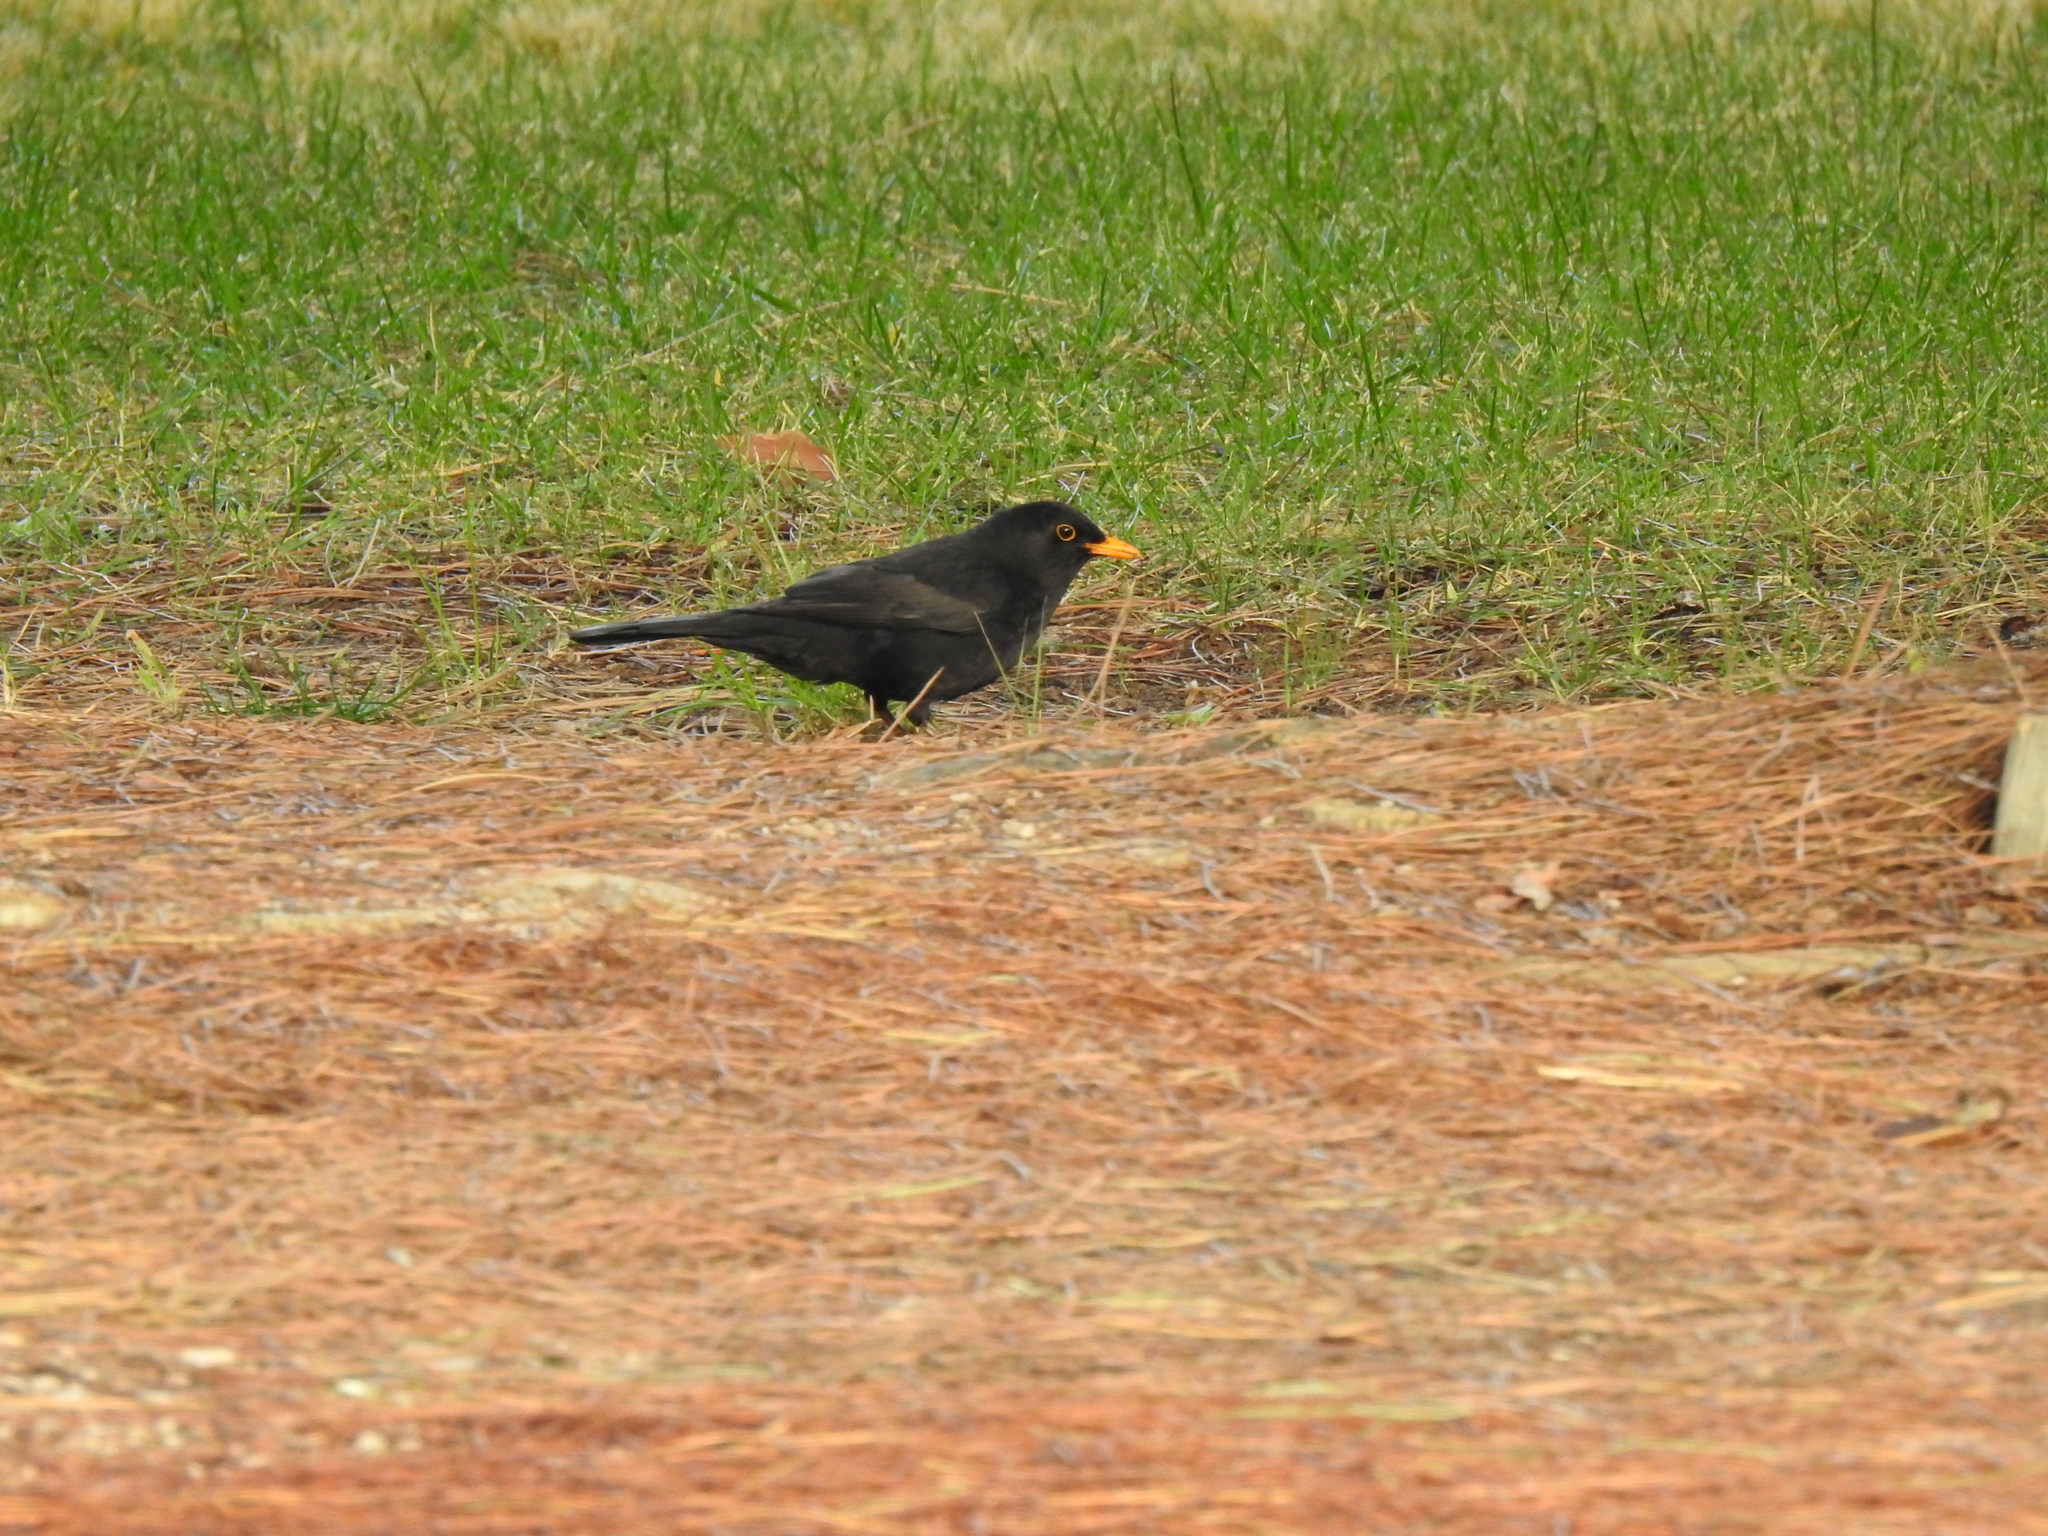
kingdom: Animalia
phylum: Chordata
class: Aves
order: Passeriformes
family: Turdidae
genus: Turdus
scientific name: Turdus merula
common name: Common blackbird
